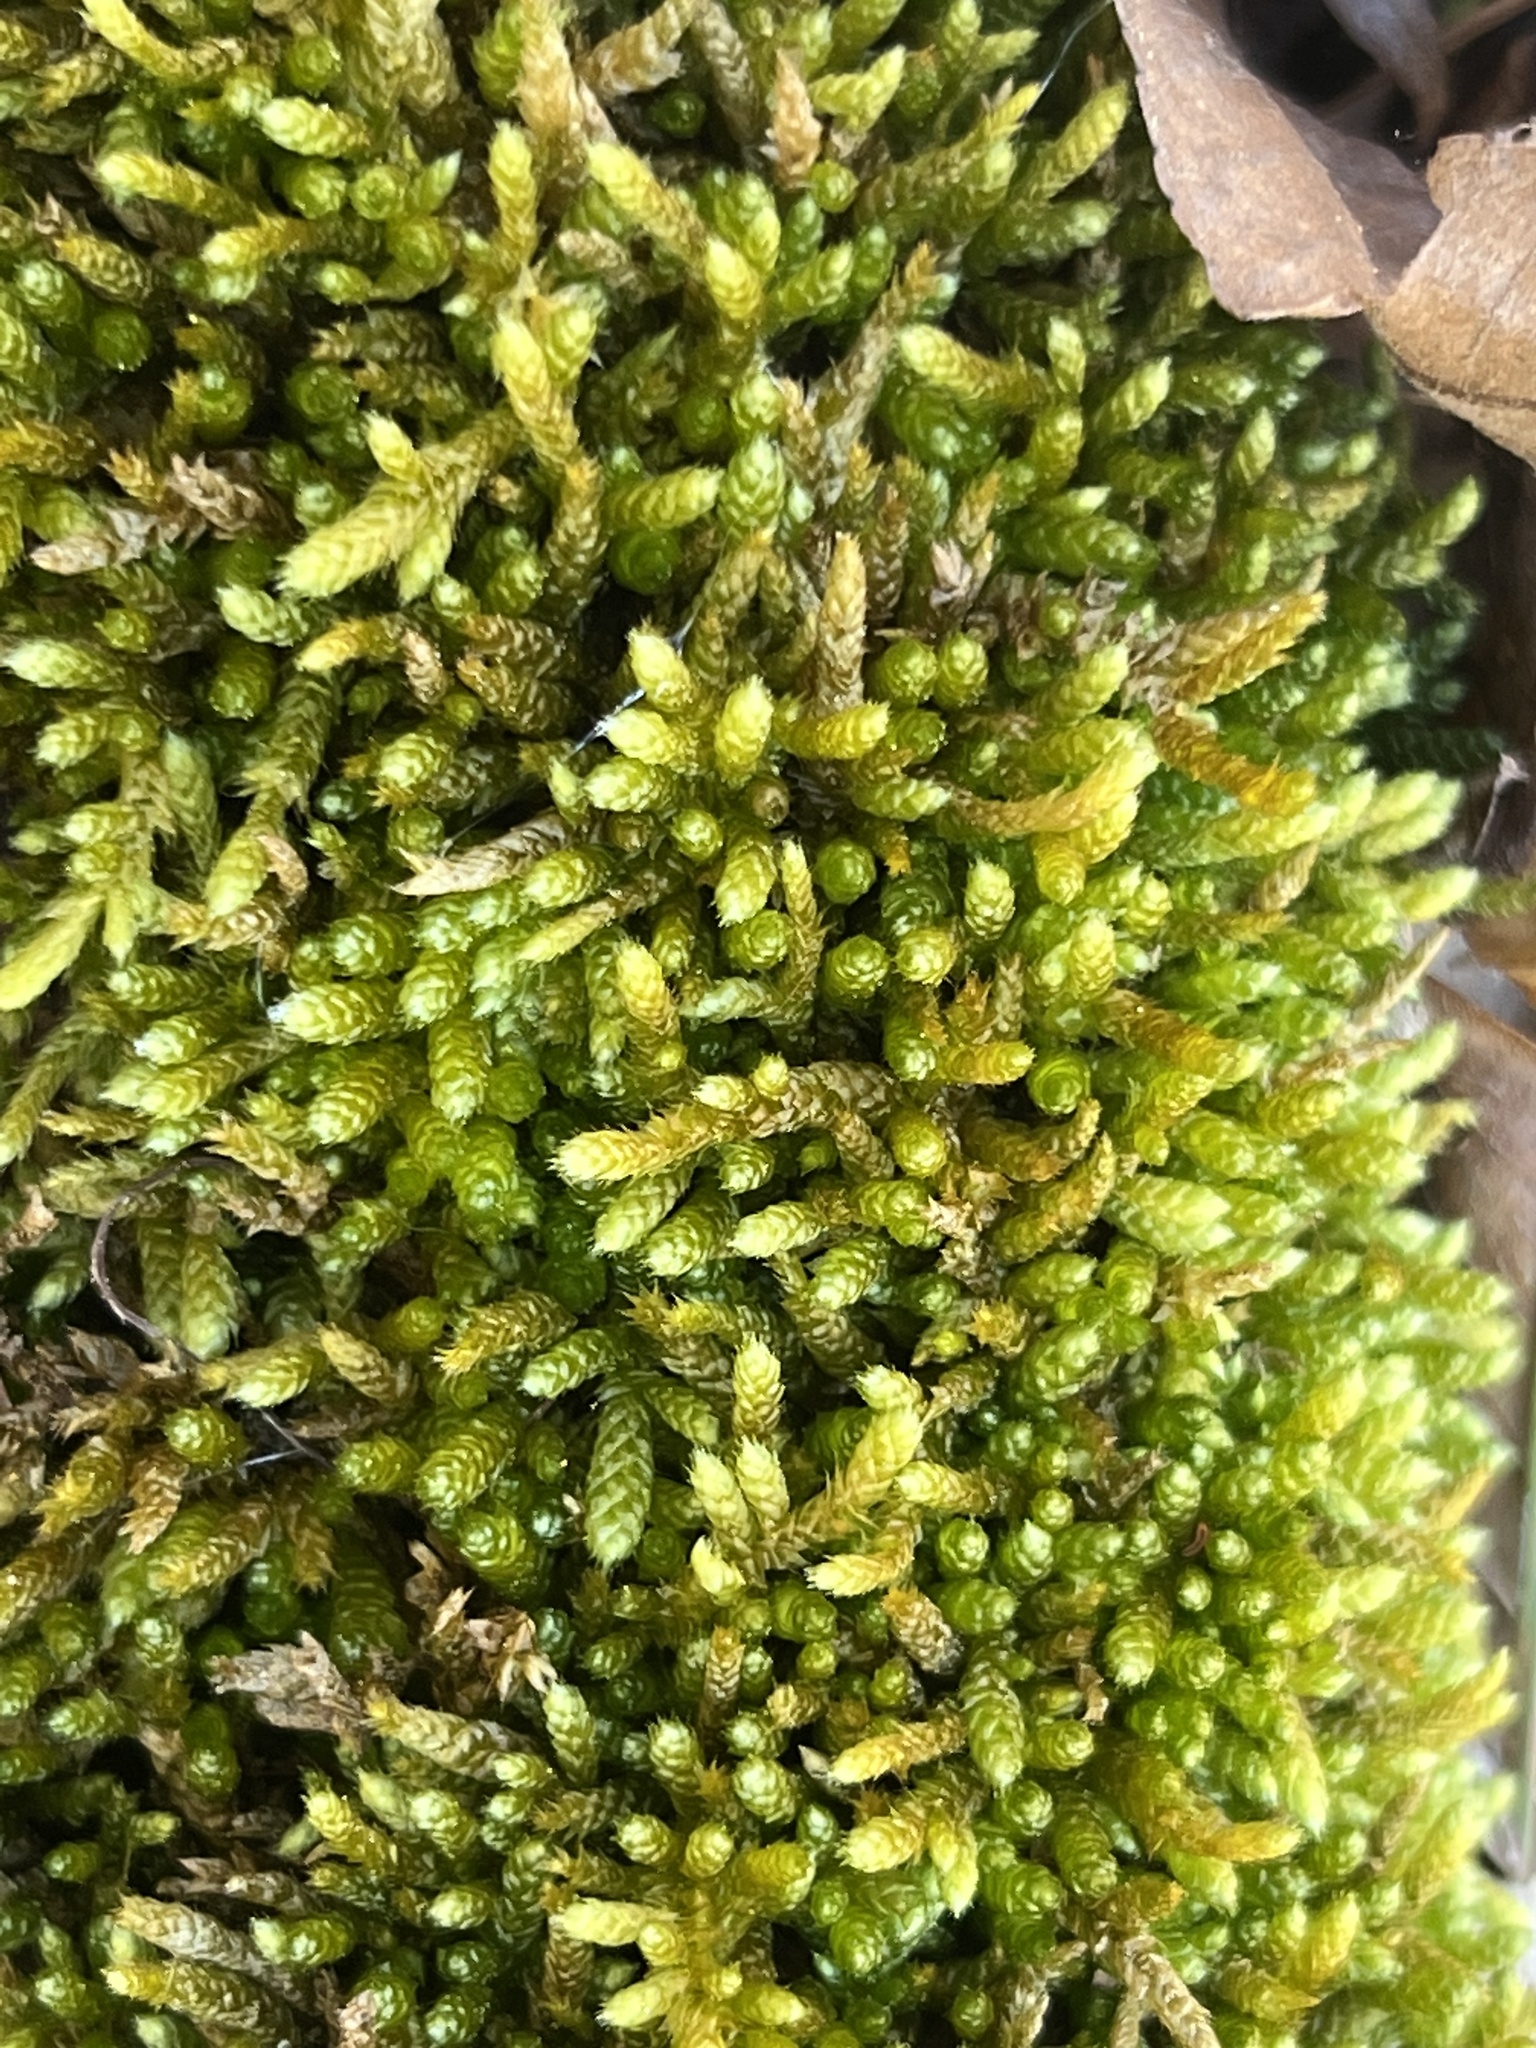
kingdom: Plantae
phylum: Bryophyta
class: Bryopsida
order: Hypnales
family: Brachytheciaceae
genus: Bryoandersonia
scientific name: Bryoandersonia illecebra
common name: Spoon-leaved moss
